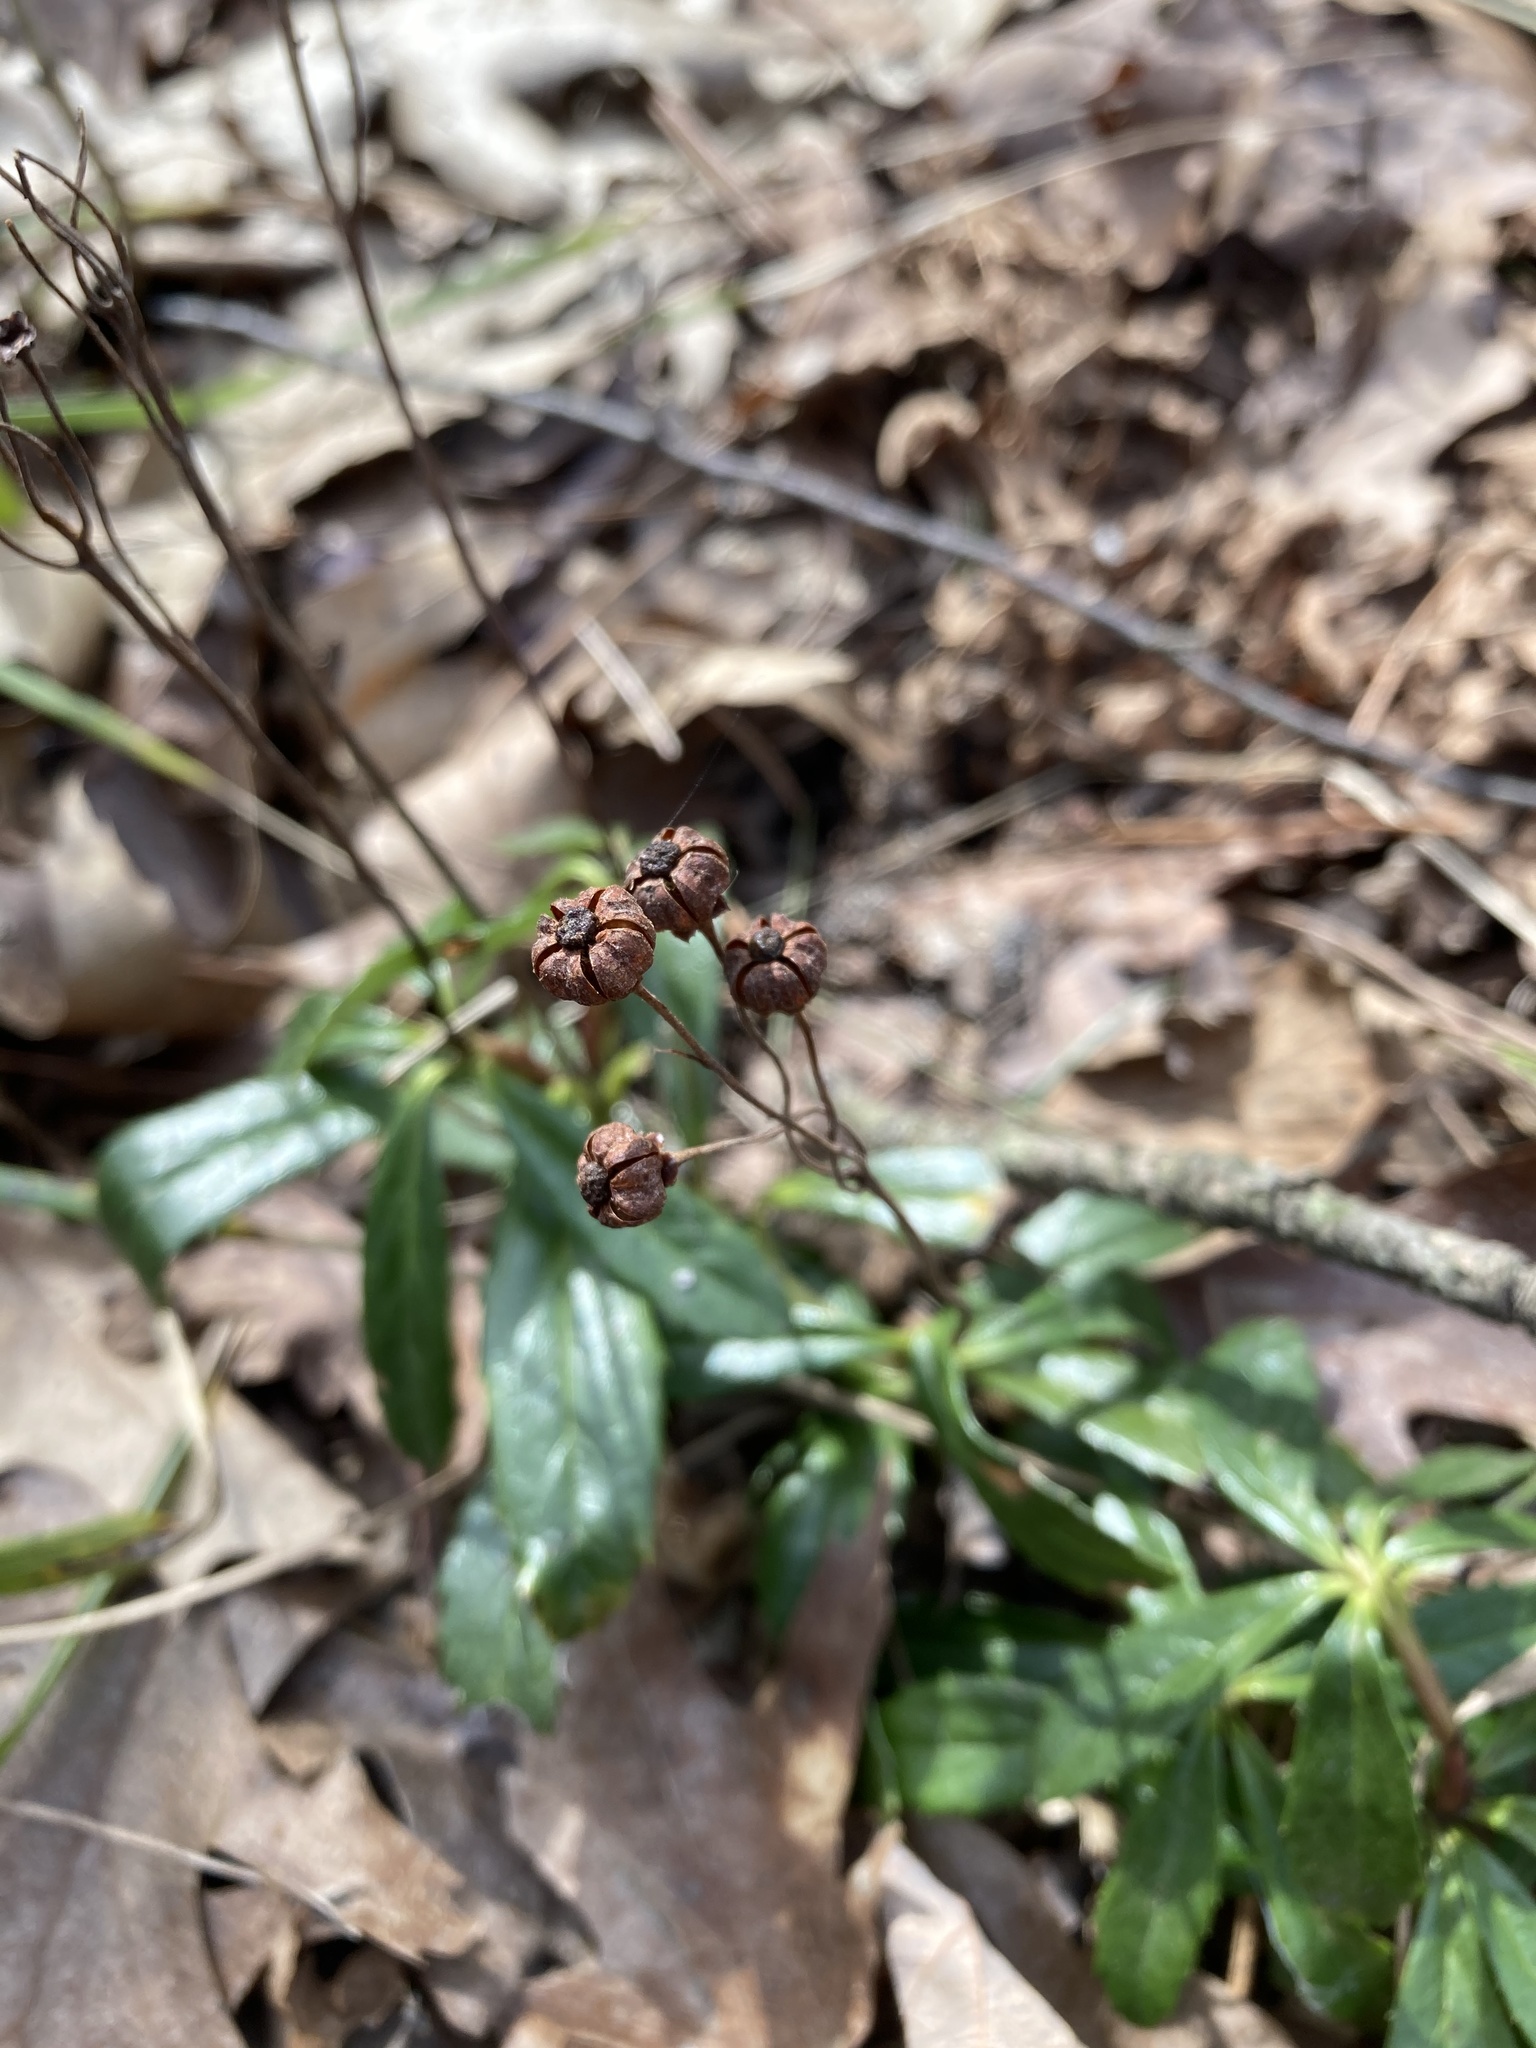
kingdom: Plantae
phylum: Tracheophyta
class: Magnoliopsida
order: Ericales
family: Ericaceae
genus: Chimaphila
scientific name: Chimaphila umbellata
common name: Pipsissewa
